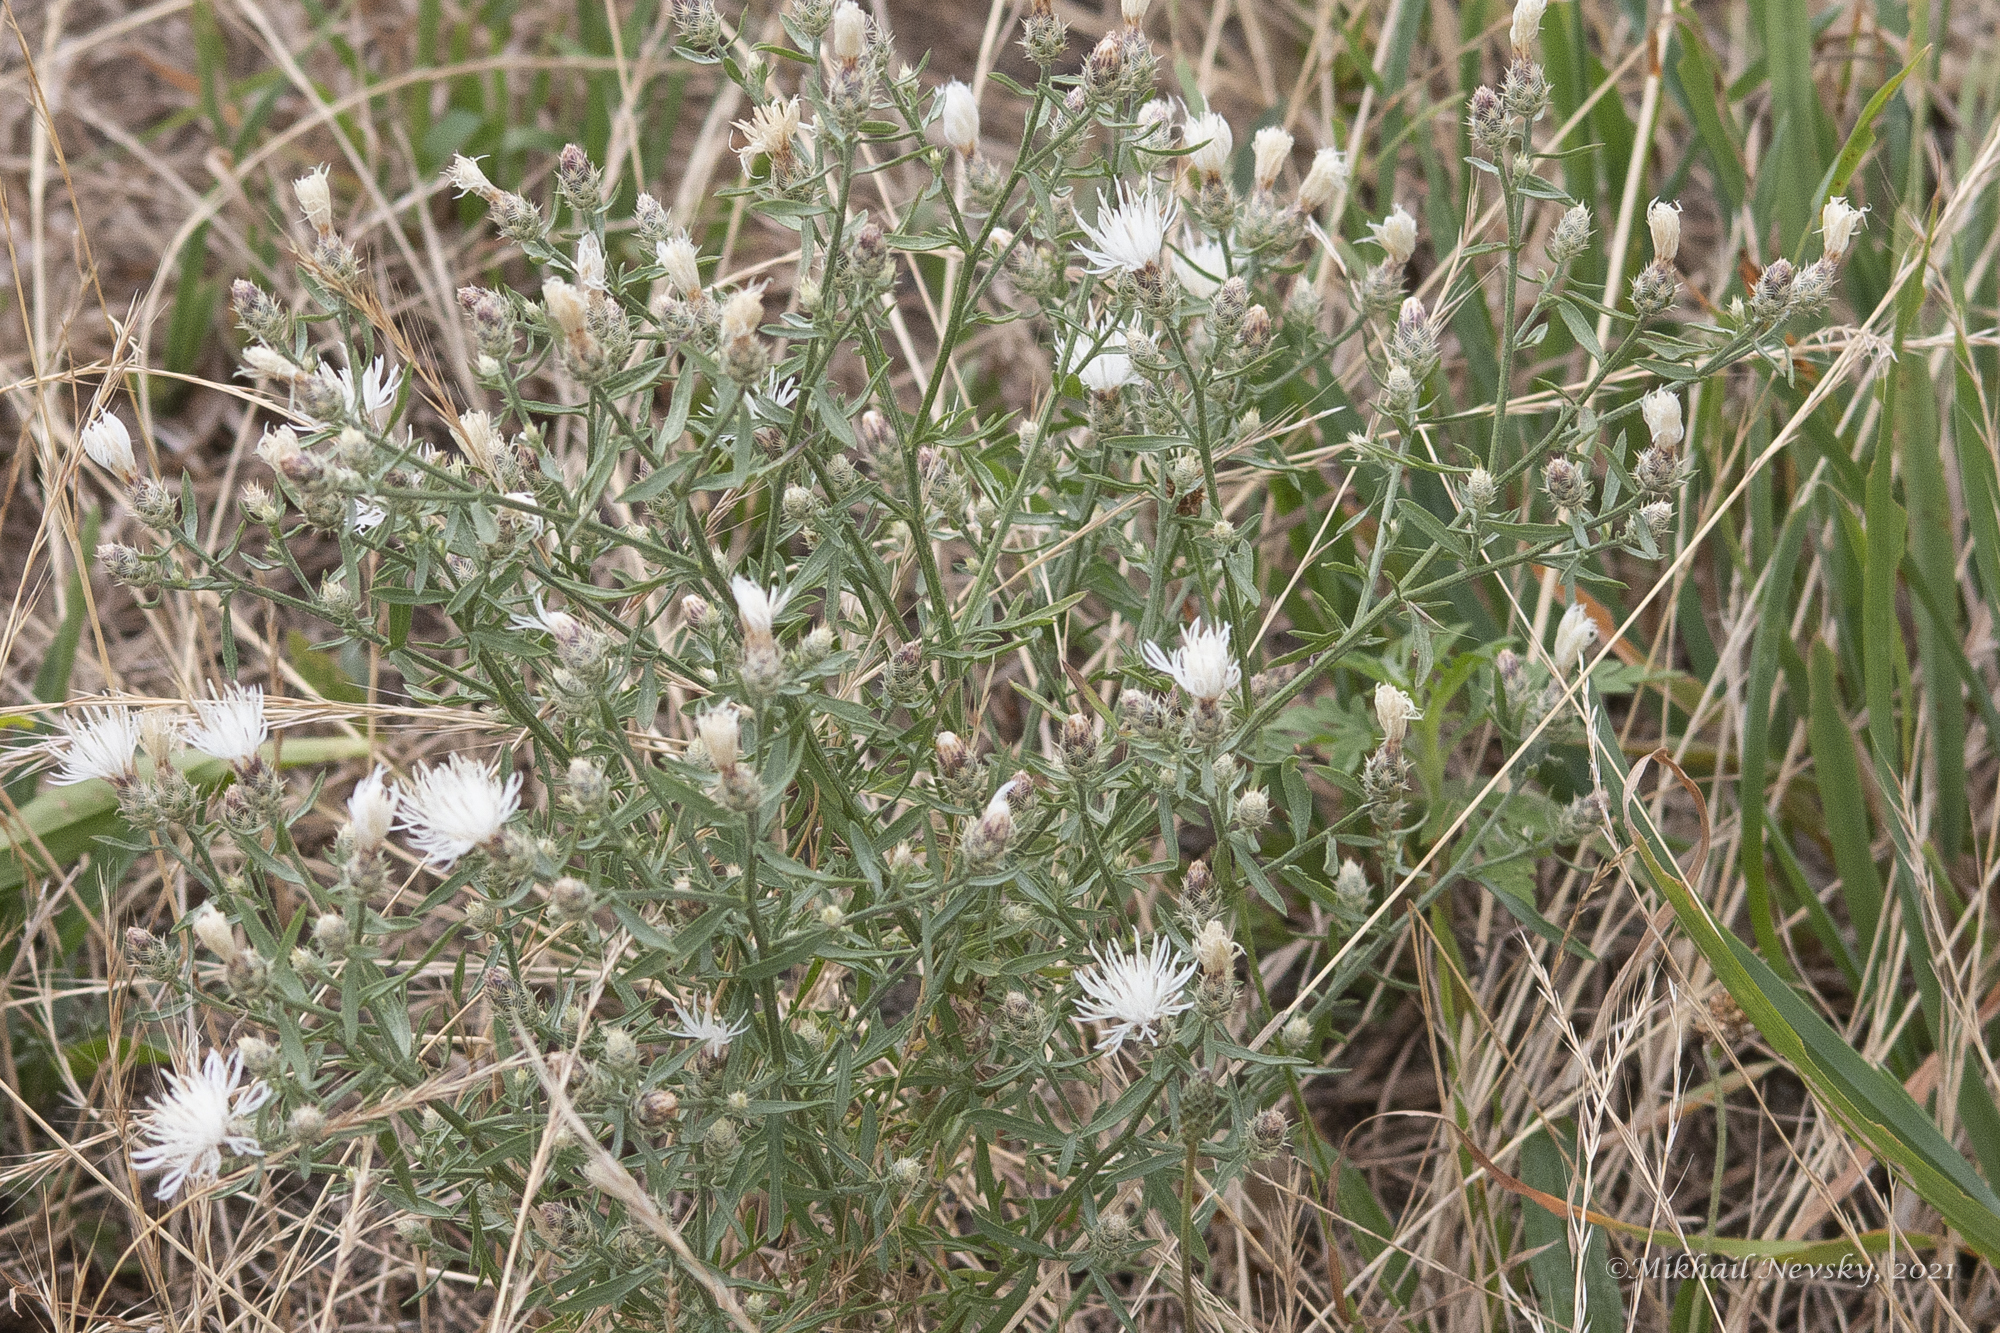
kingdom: Plantae
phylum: Tracheophyta
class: Magnoliopsida
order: Asterales
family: Asteraceae
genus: Centaurea
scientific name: Centaurea diffusa
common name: Diffuse knapweed
